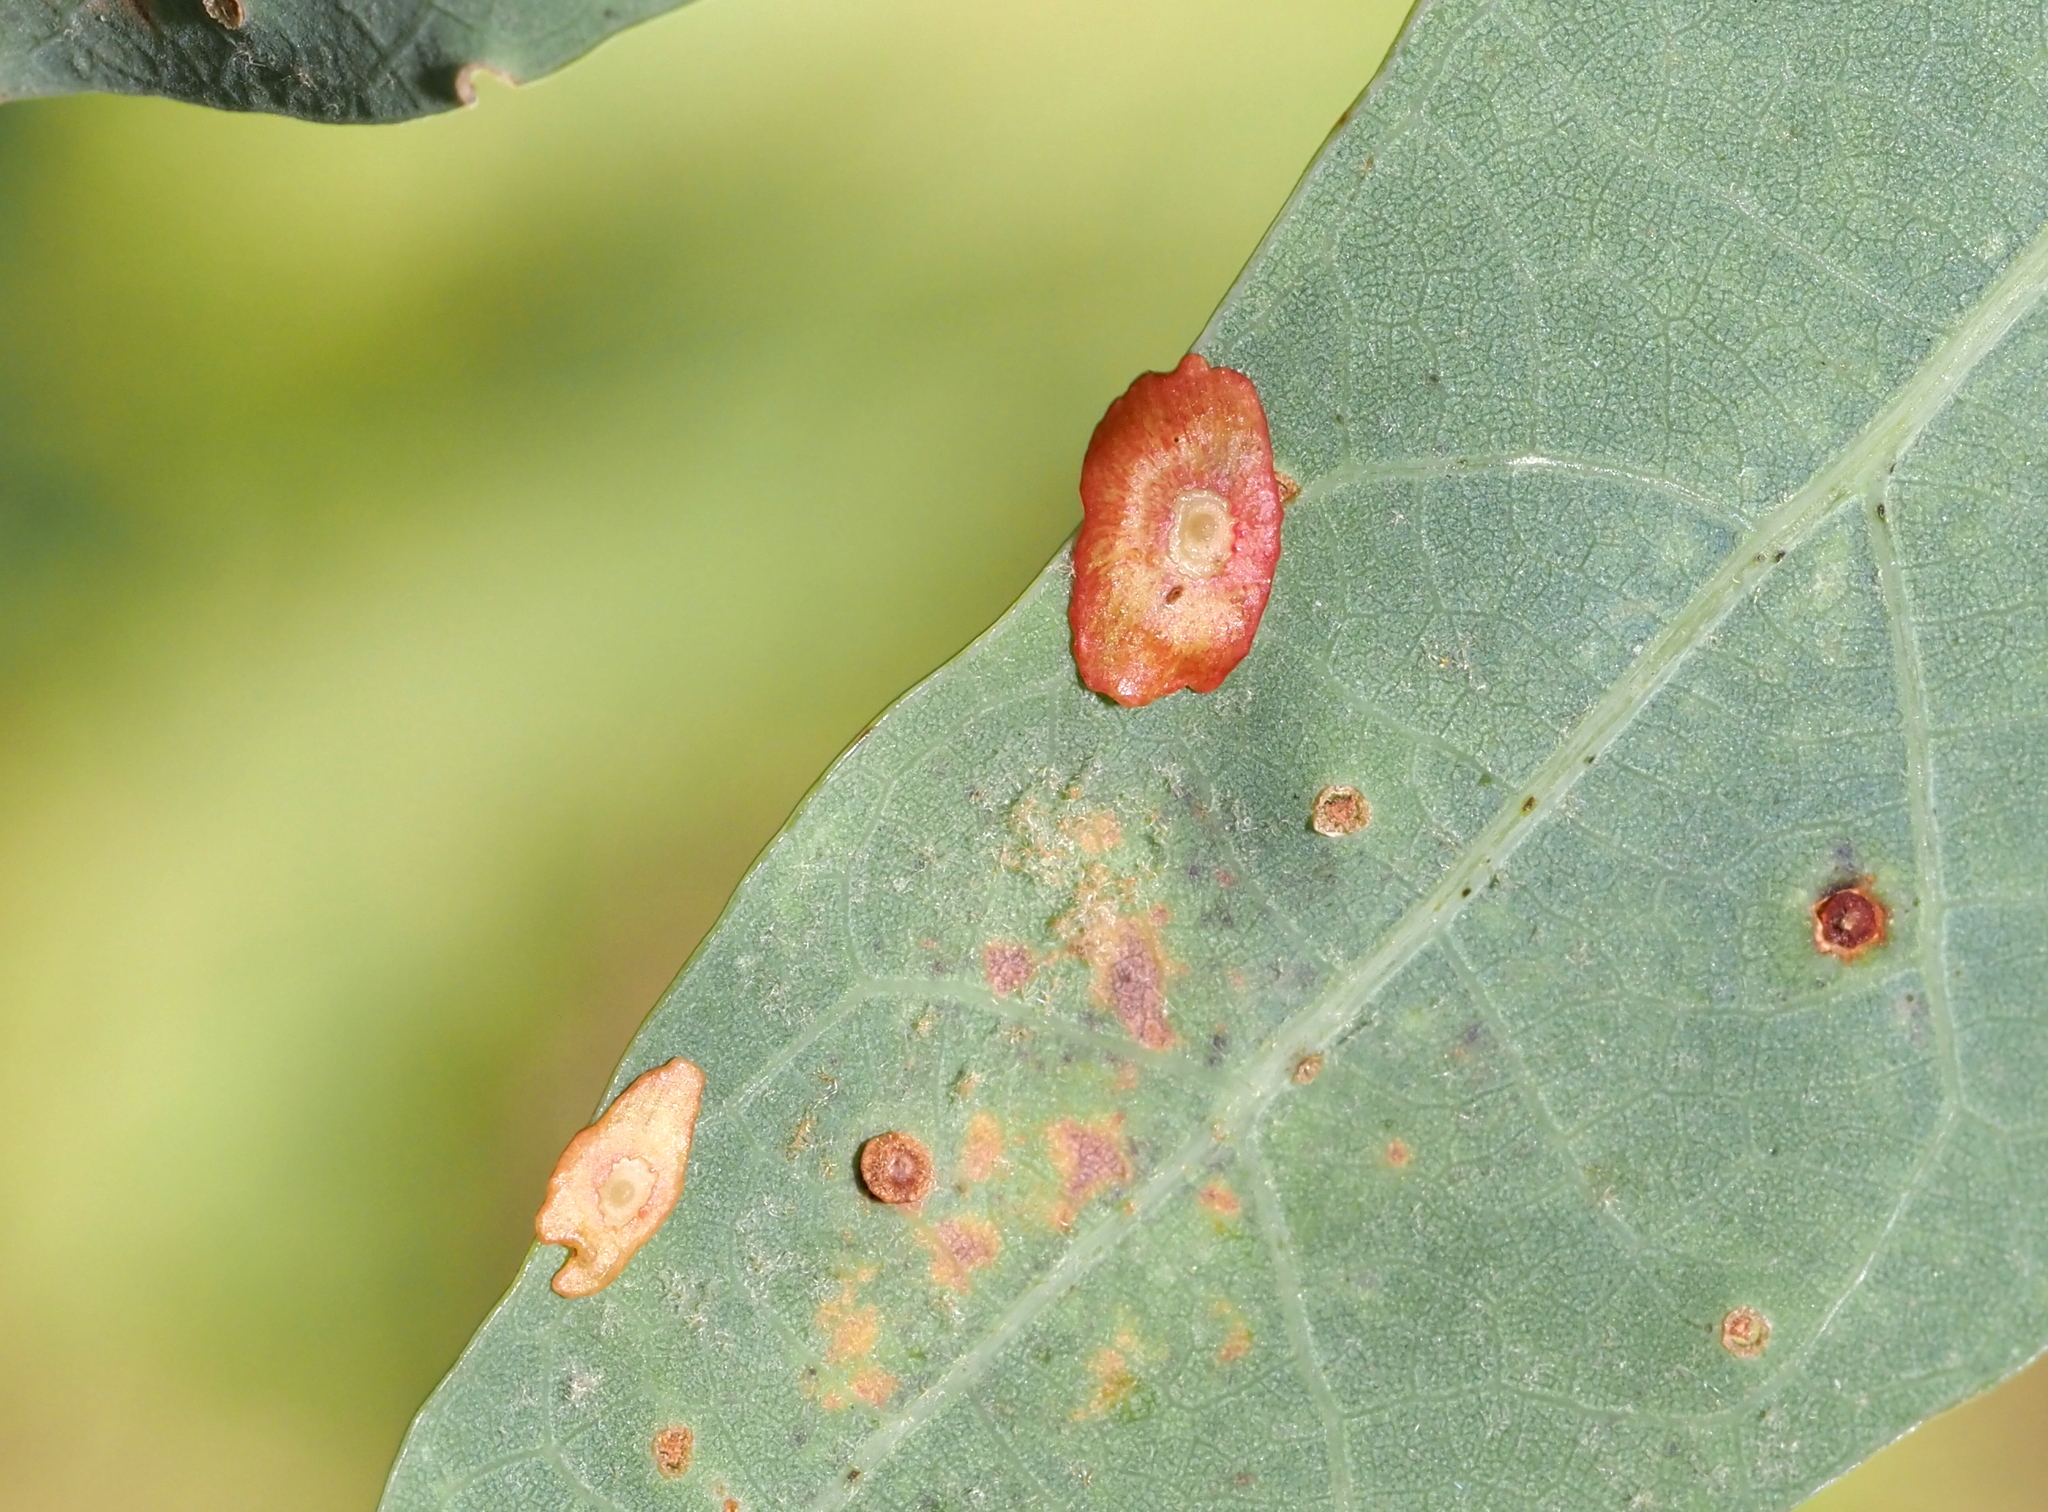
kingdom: Animalia
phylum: Arthropoda
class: Insecta
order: Hymenoptera
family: Cynipidae
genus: Phylloteras
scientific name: Phylloteras
